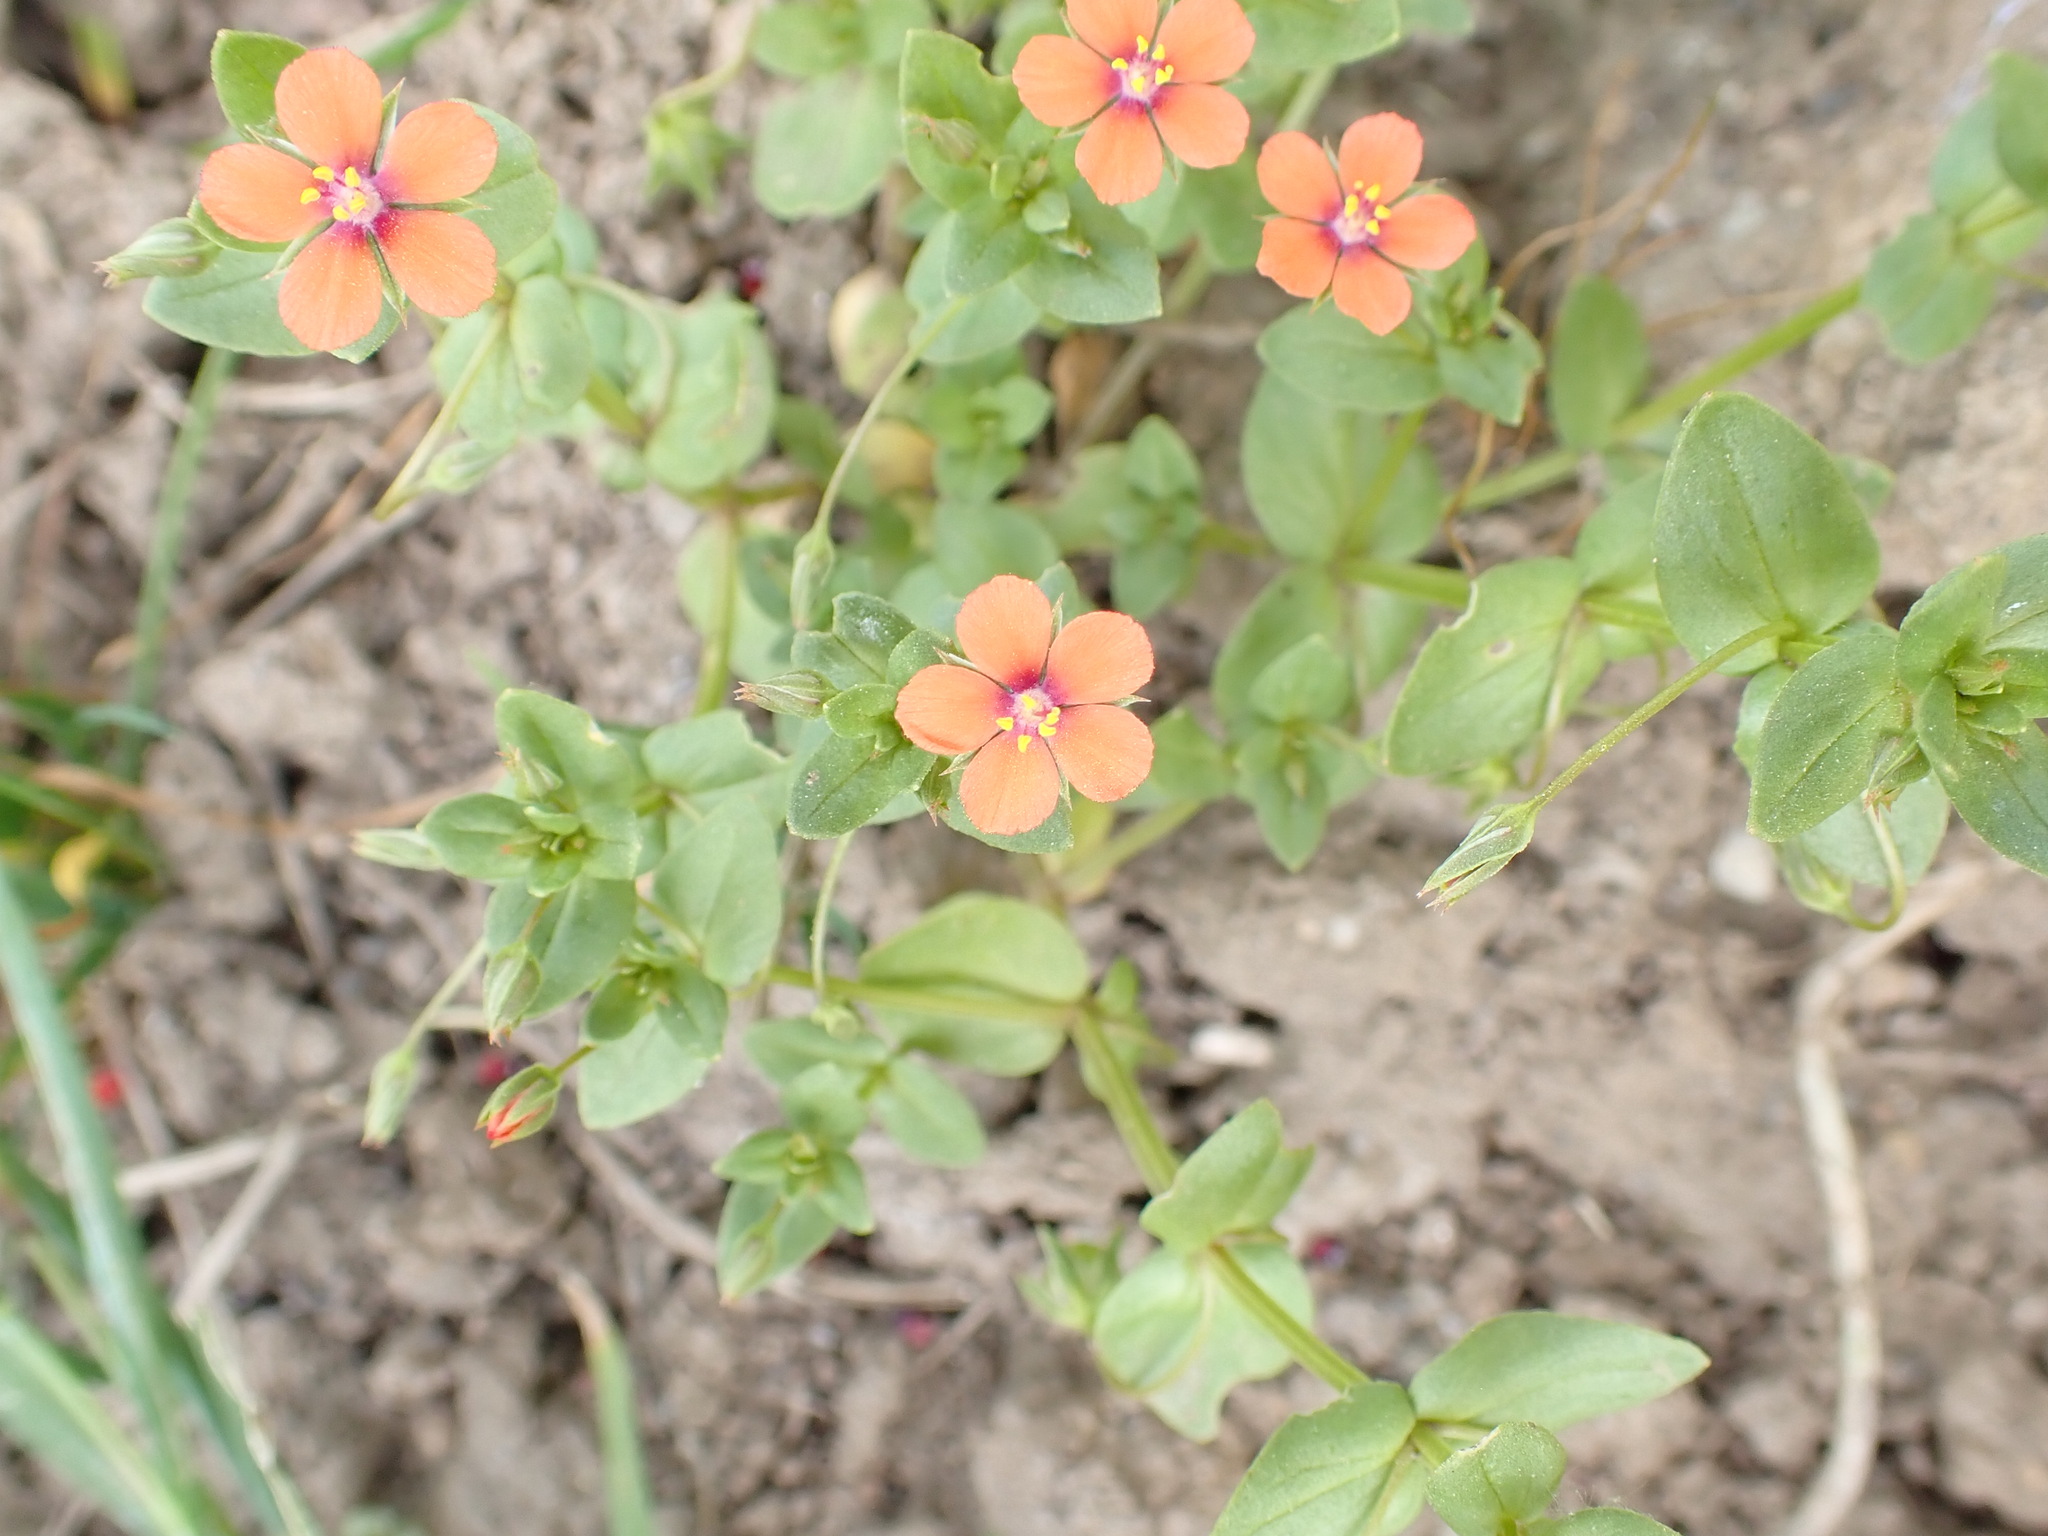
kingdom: Plantae
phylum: Tracheophyta
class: Magnoliopsida
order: Ericales
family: Primulaceae
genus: Lysimachia
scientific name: Lysimachia arvensis
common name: Scarlet pimpernel
